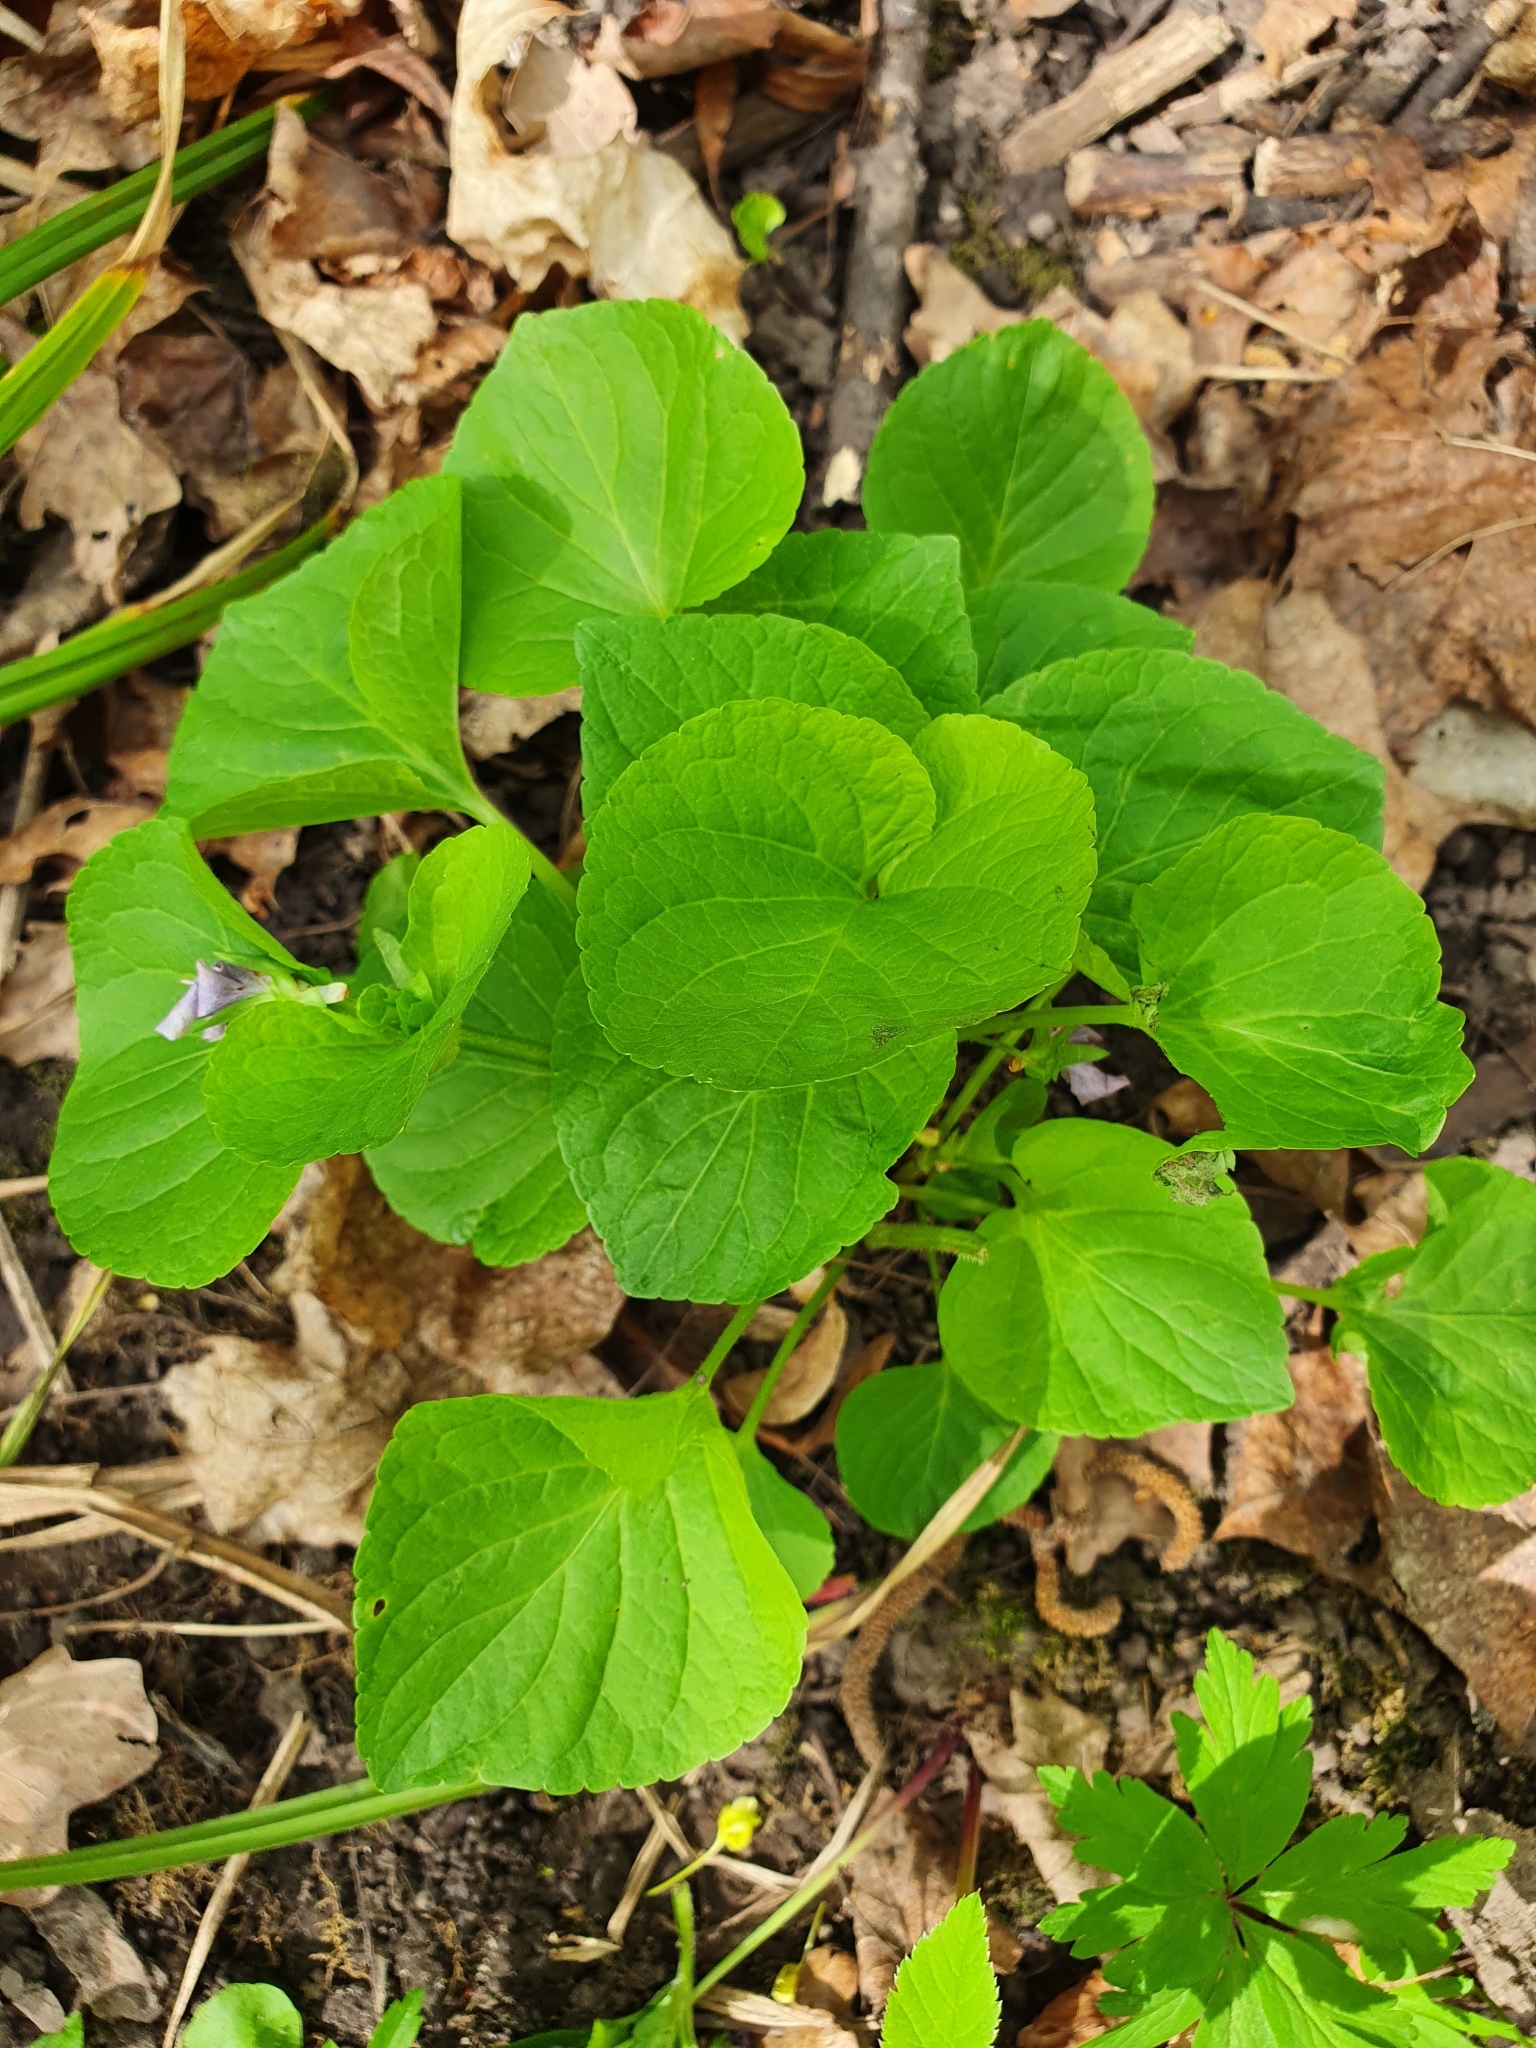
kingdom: Plantae
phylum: Tracheophyta
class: Magnoliopsida
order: Malpighiales
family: Violaceae
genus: Viola
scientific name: Viola mirabilis
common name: Wonder violet
